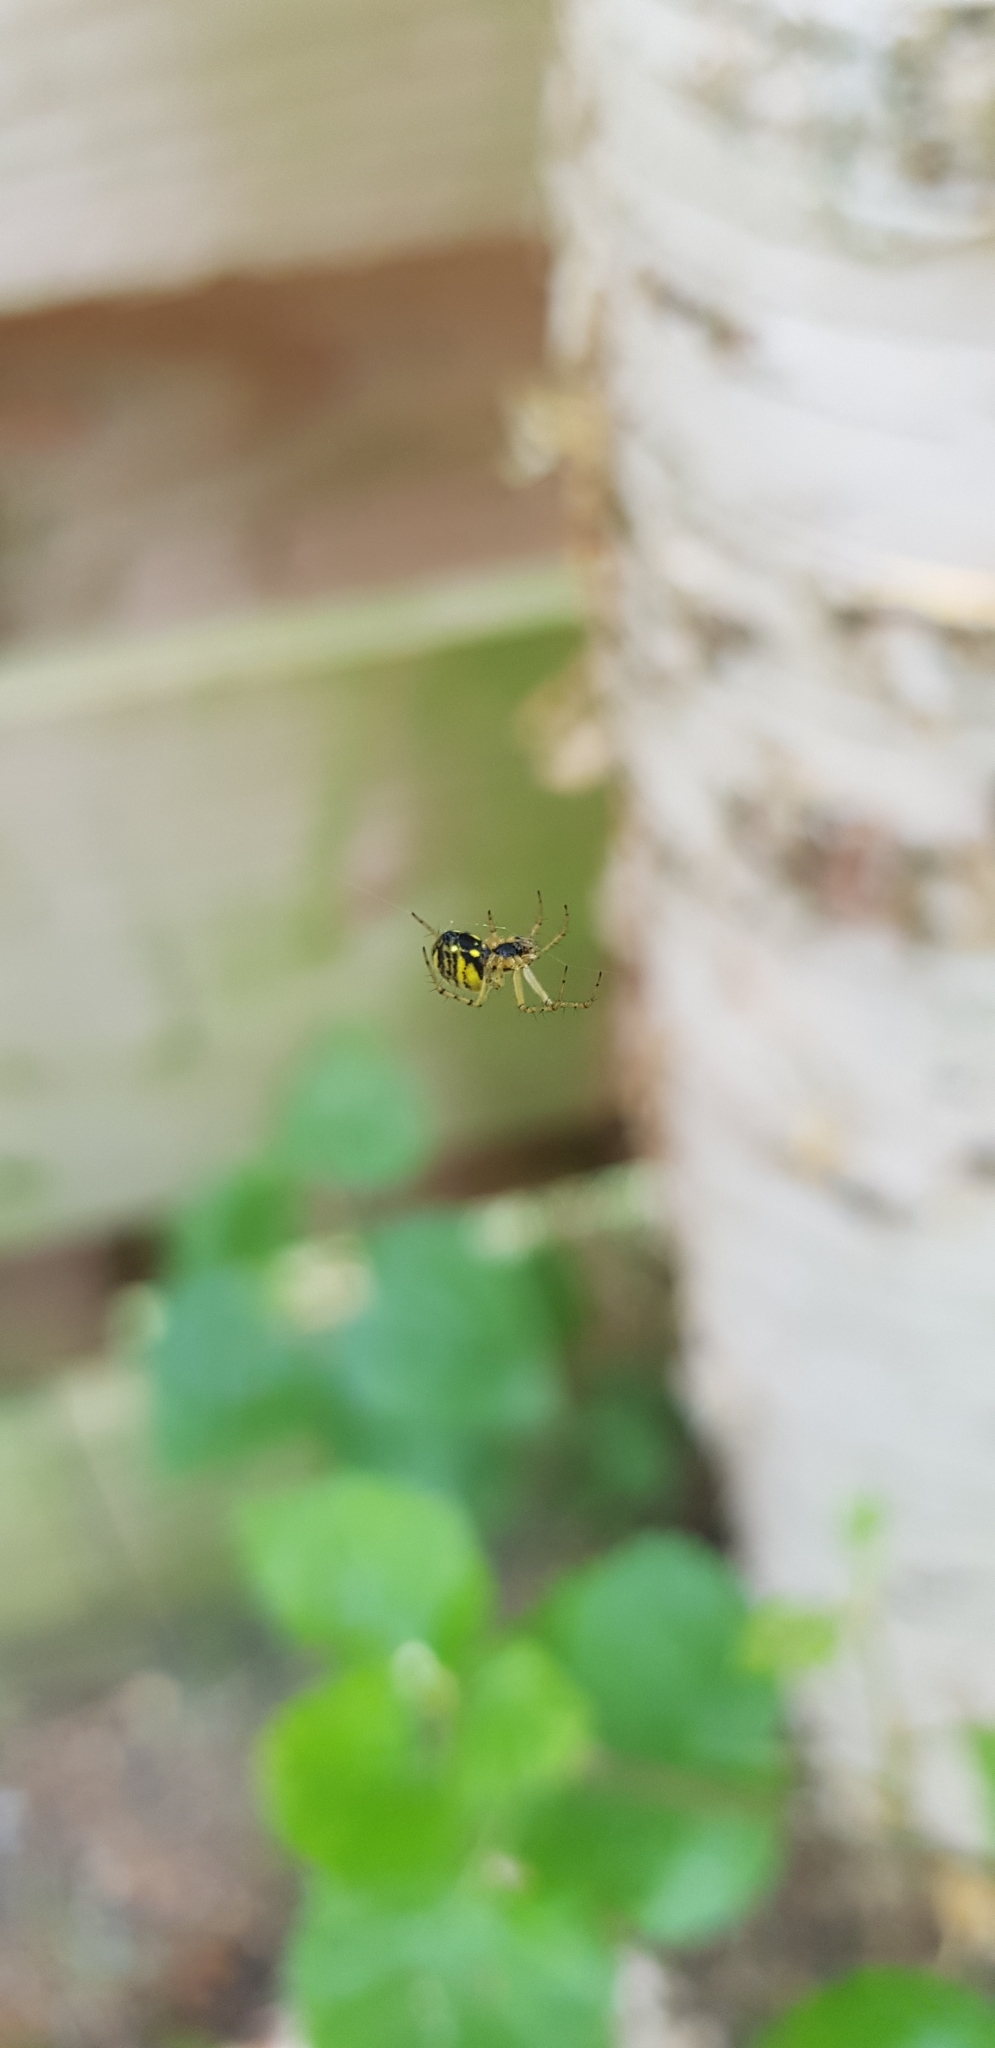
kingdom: Animalia
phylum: Arthropoda
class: Arachnida
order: Araneae
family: Araneidae
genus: Mangora
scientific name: Mangora acalypha
